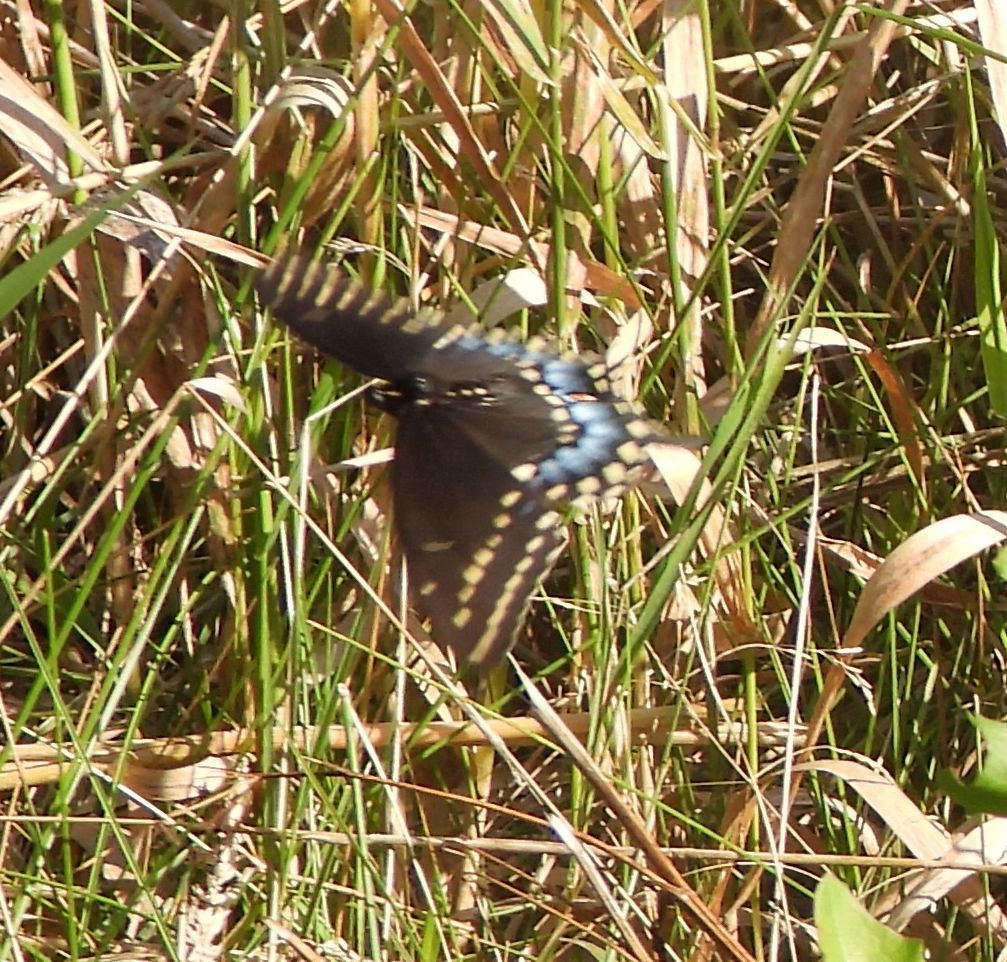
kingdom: Animalia
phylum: Arthropoda
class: Insecta
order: Lepidoptera
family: Papilionidae
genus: Papilio
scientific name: Papilio polyxenes
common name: Black swallowtail
